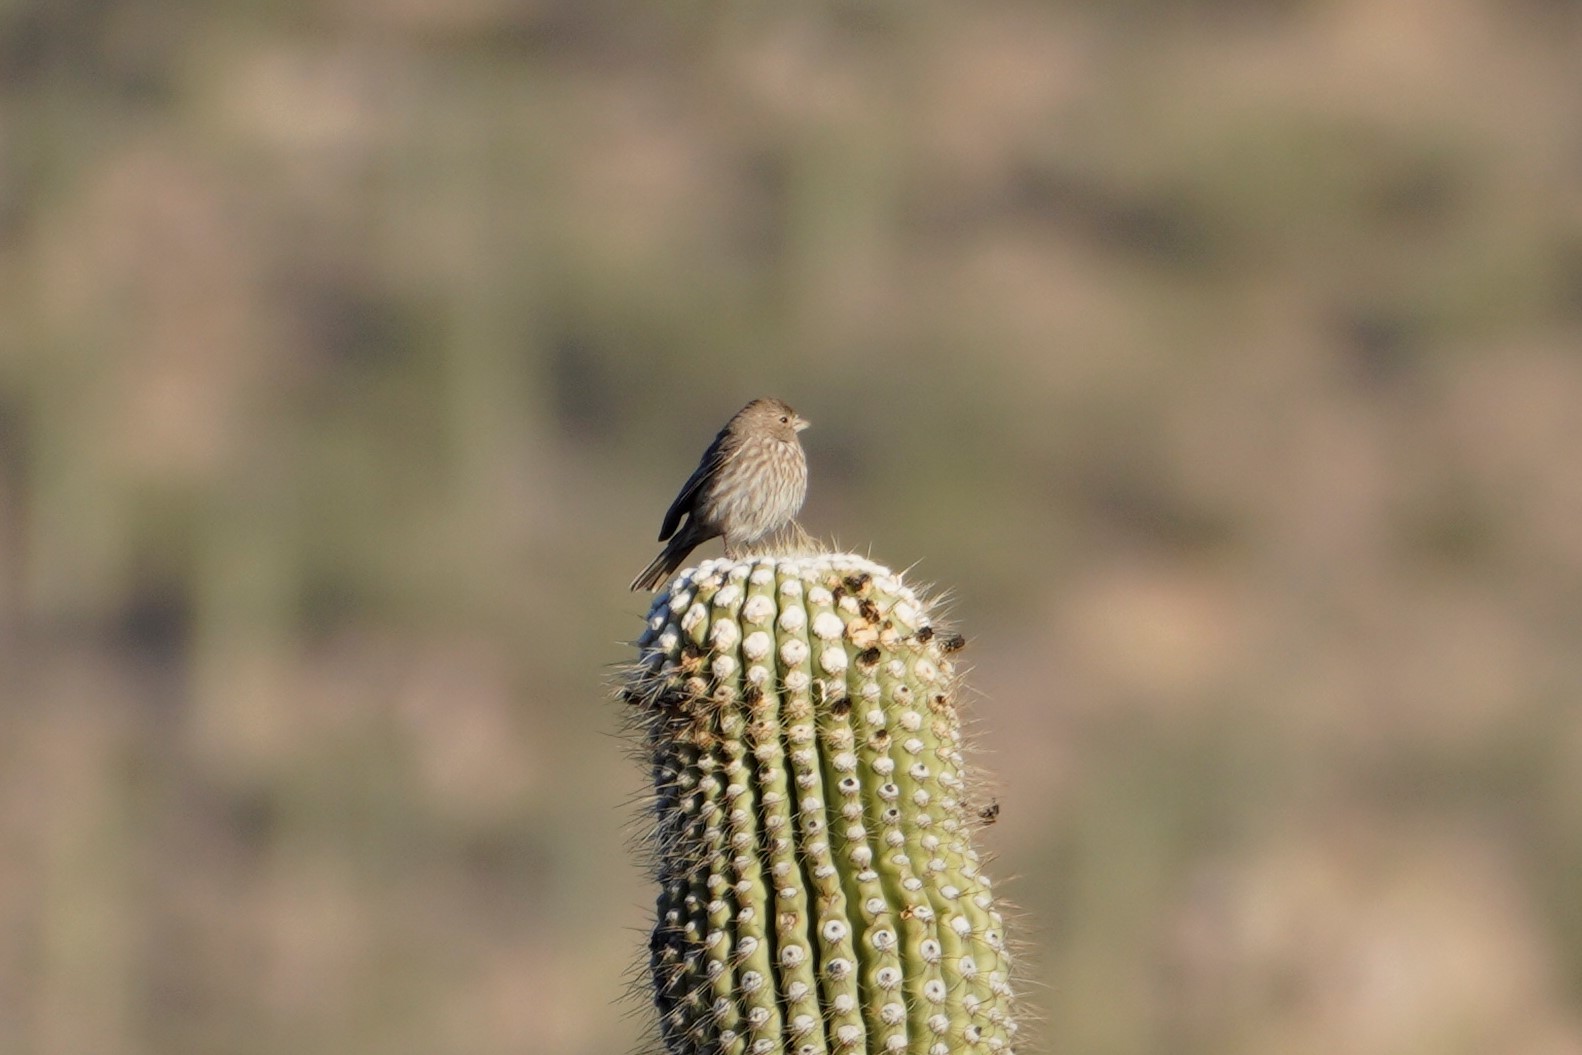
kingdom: Animalia
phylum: Chordata
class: Aves
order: Passeriformes
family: Fringillidae
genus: Haemorhous
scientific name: Haemorhous mexicanus
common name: House finch
